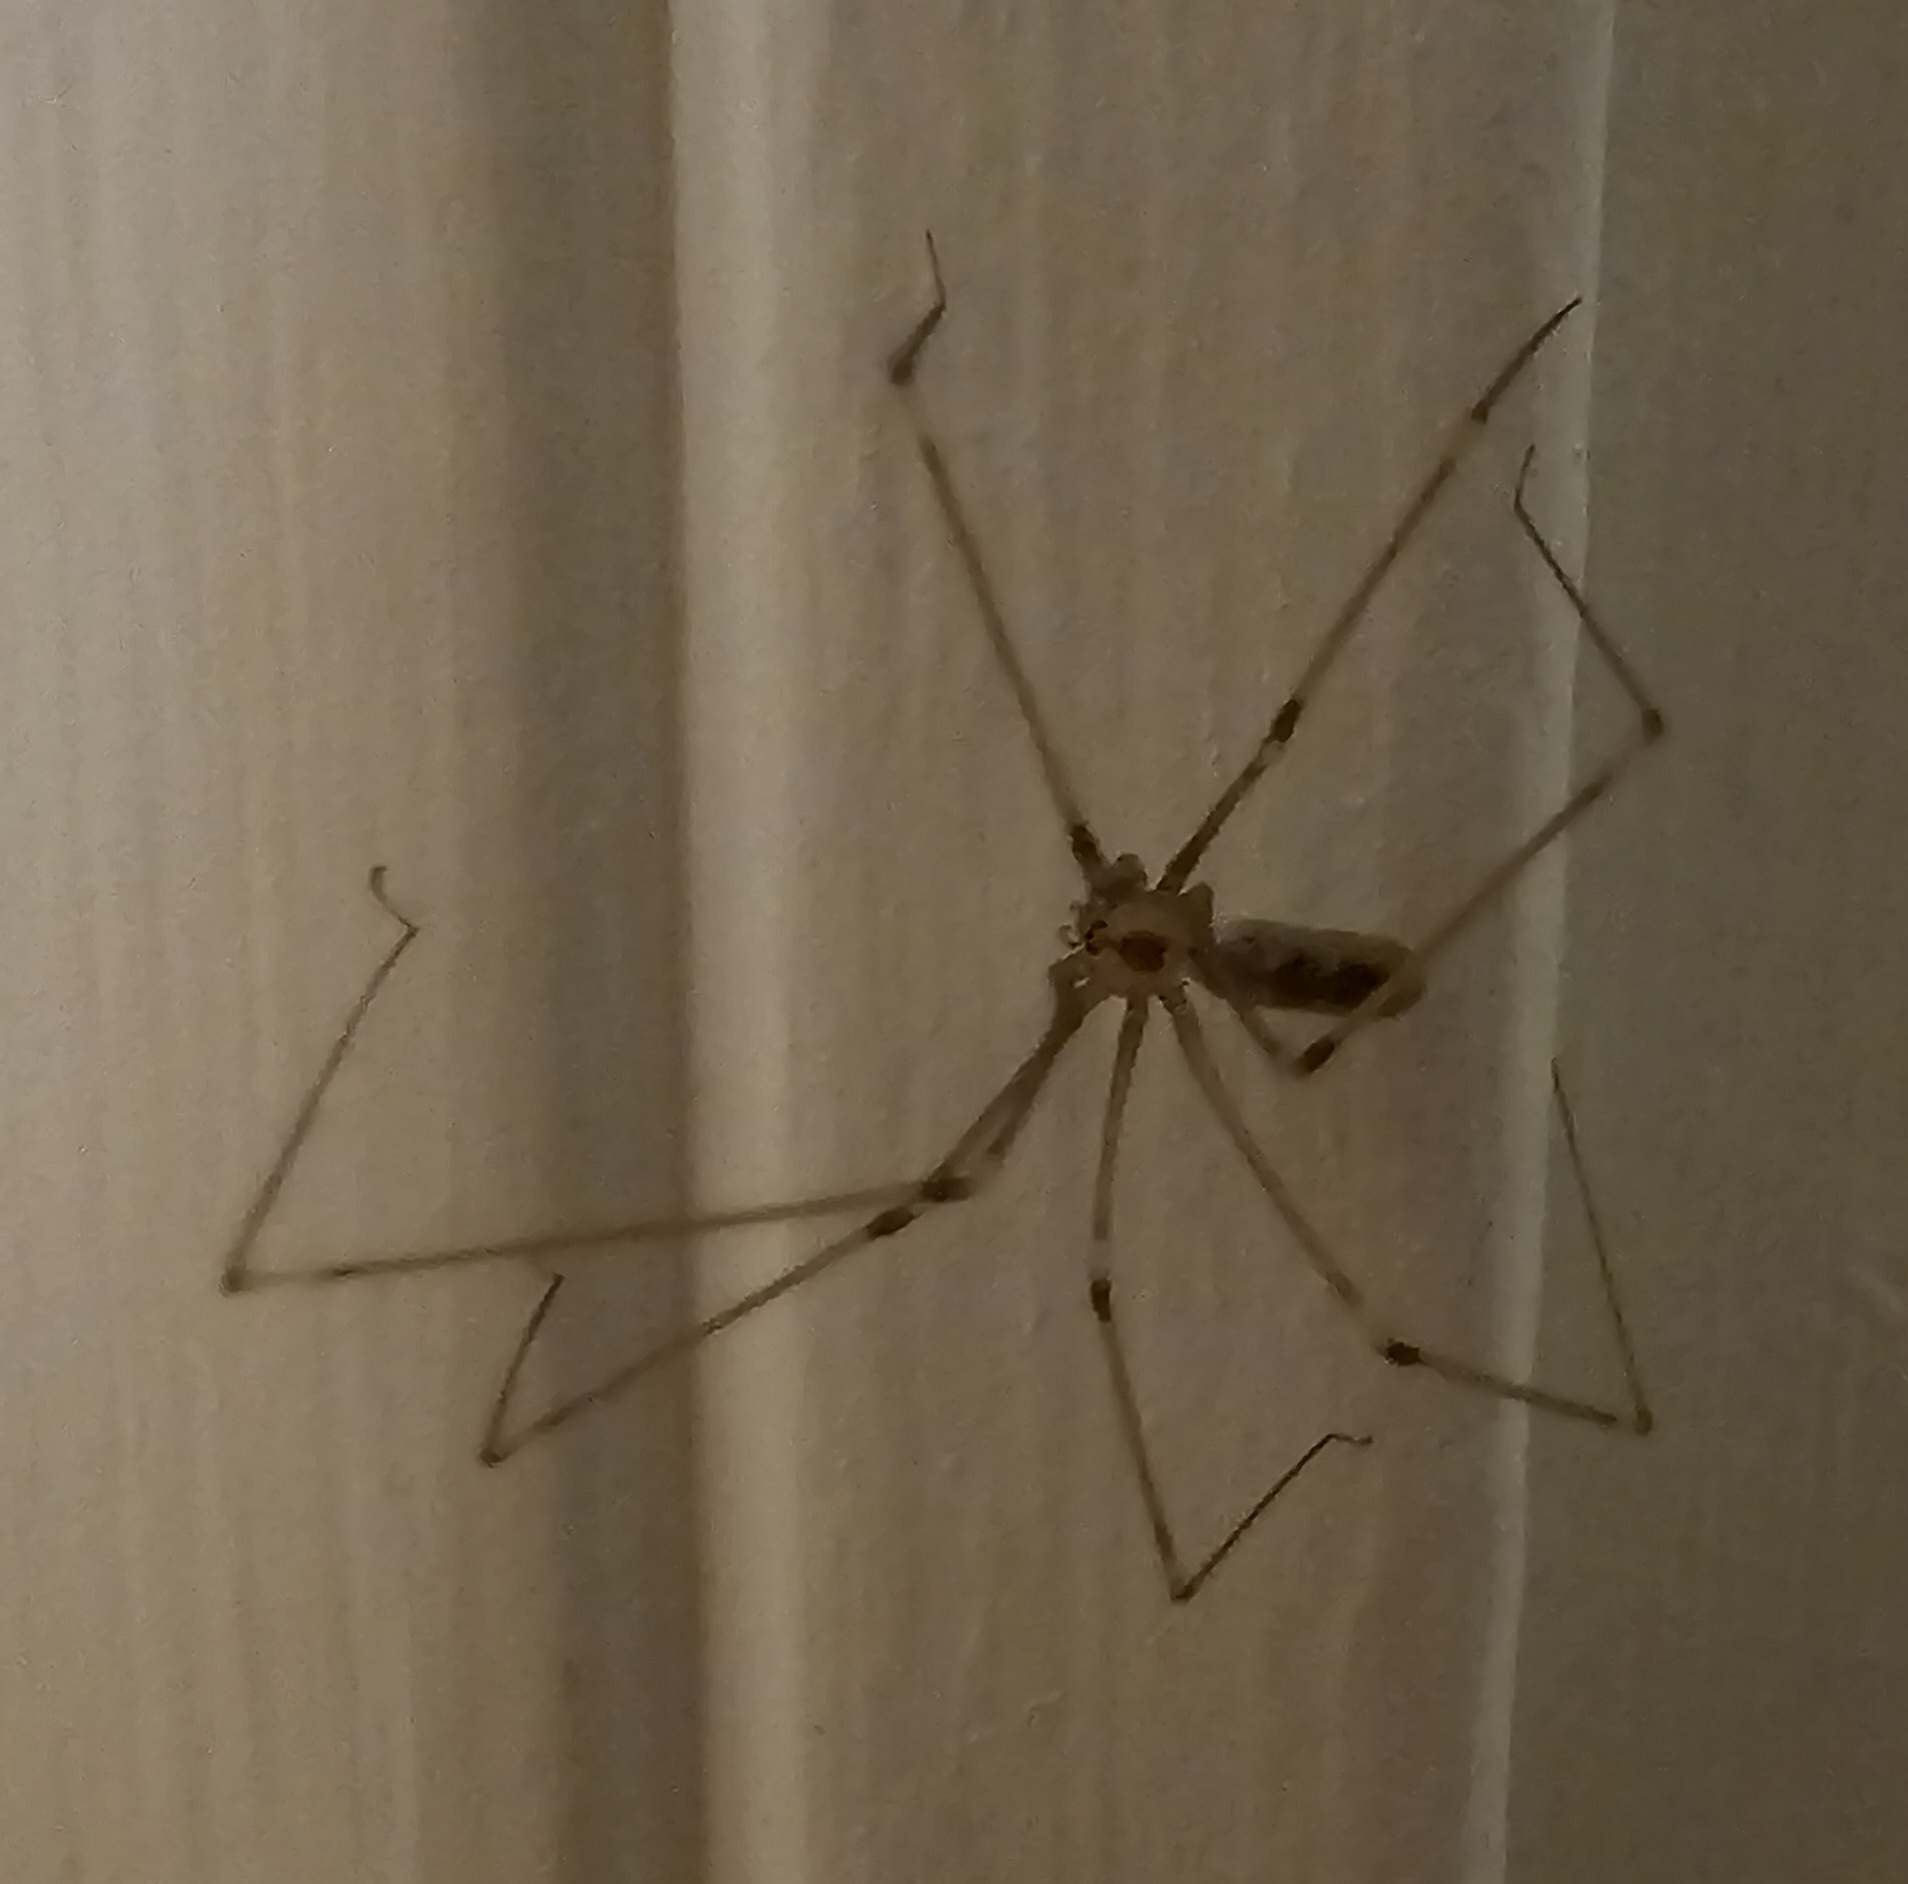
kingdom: Animalia
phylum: Arthropoda
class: Arachnida
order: Araneae
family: Pholcidae
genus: Pholcus
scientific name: Pholcus phalangioides
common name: Longbodied cellar spider
